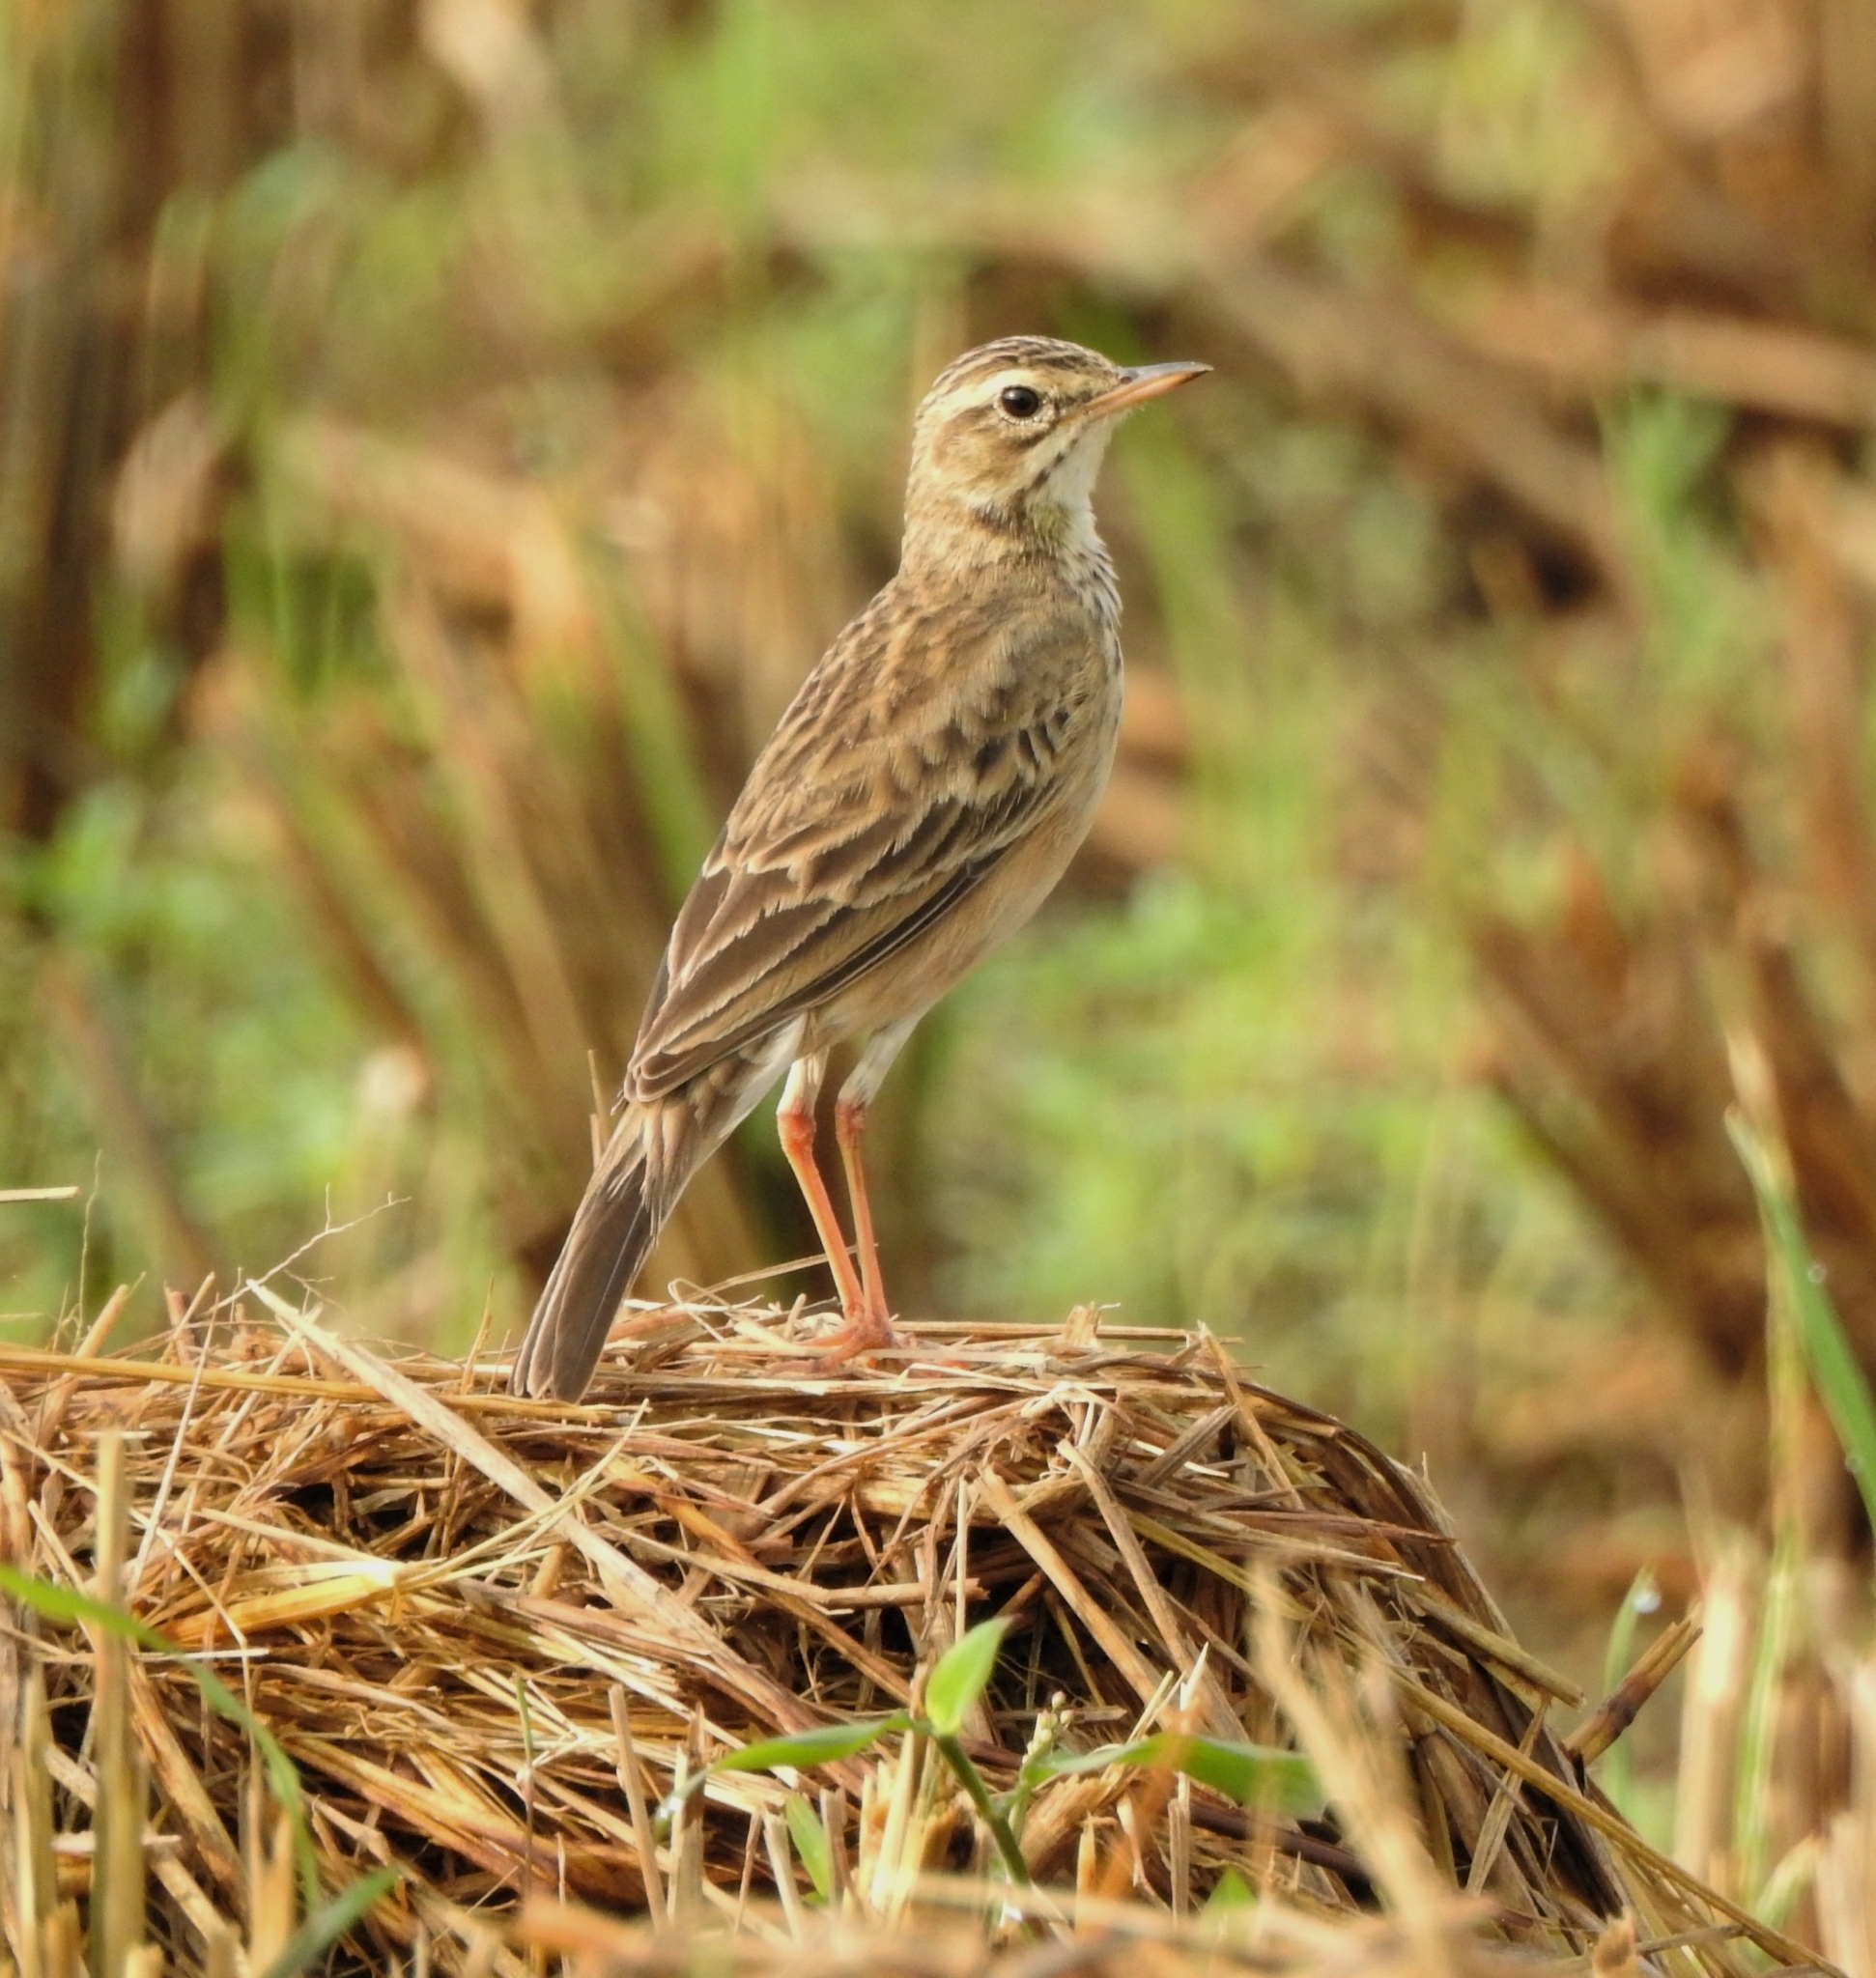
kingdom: Animalia
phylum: Chordata
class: Aves
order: Passeriformes
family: Motacillidae
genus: Anthus
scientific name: Anthus rufulus
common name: Paddyfield pipit
